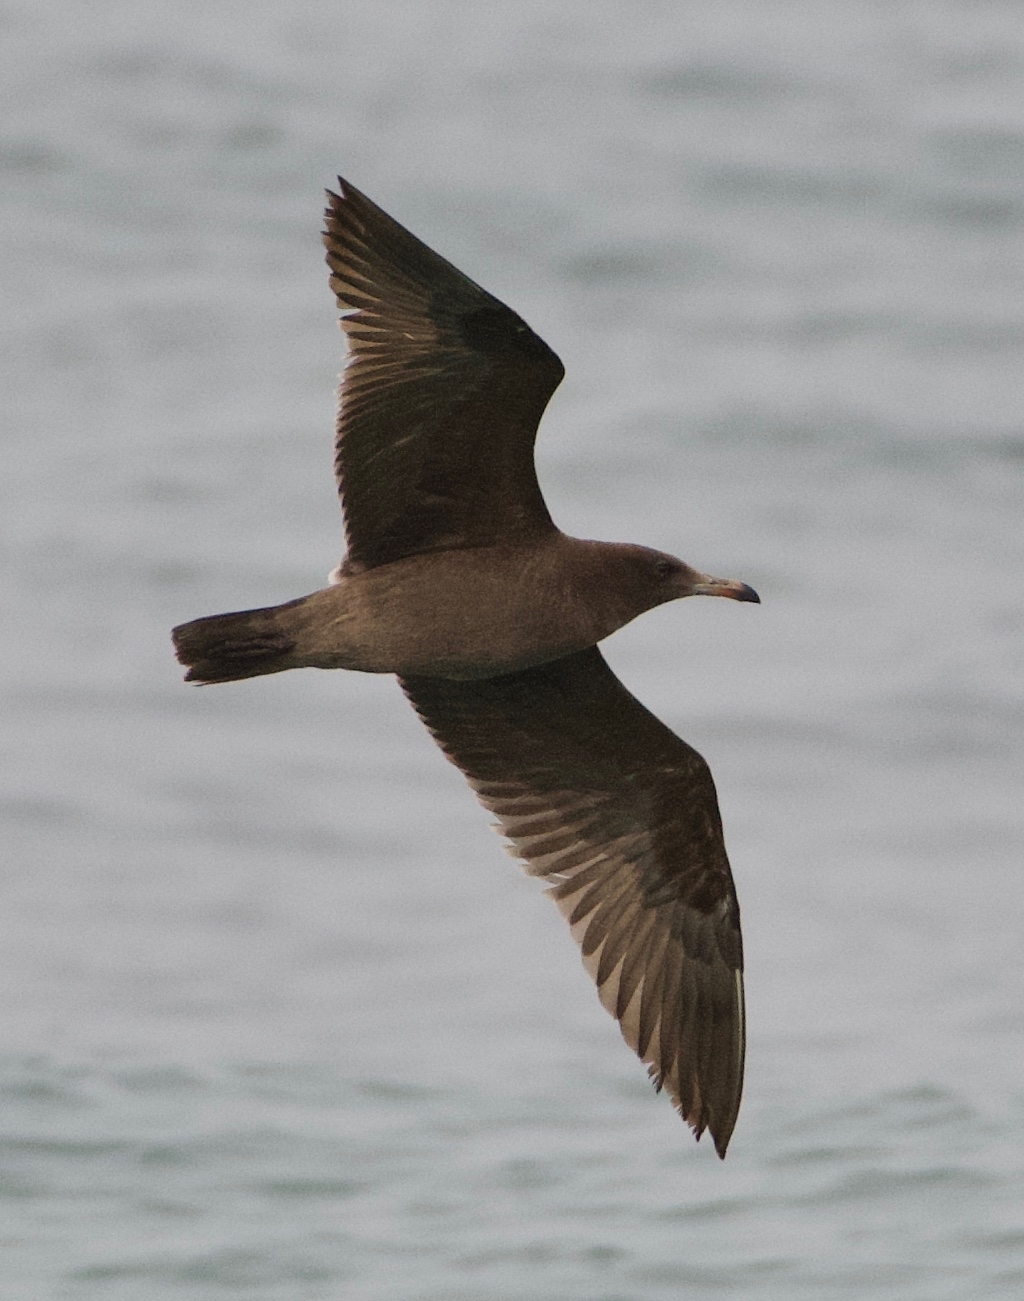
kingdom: Animalia
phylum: Chordata
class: Aves
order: Charadriiformes
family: Laridae
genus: Larus
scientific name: Larus heermanni
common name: Heermann's gull
